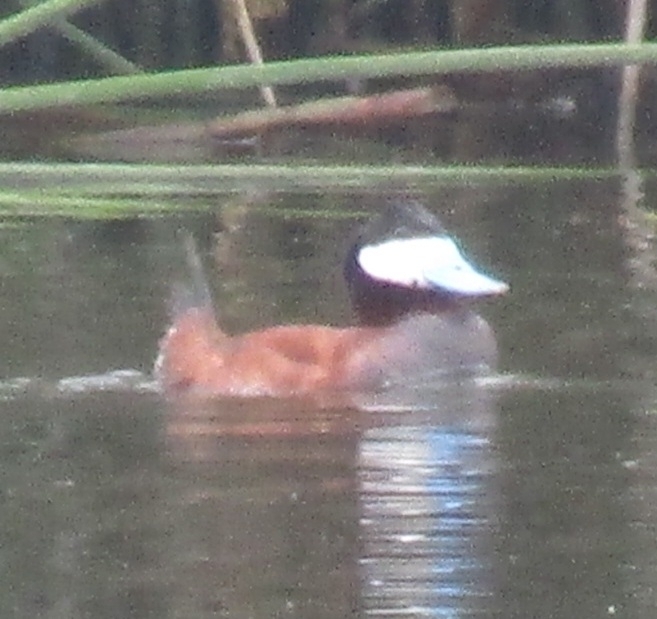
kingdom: Animalia
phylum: Chordata
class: Aves
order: Anseriformes
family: Anatidae
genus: Oxyura
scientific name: Oxyura jamaicensis
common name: Ruddy duck
